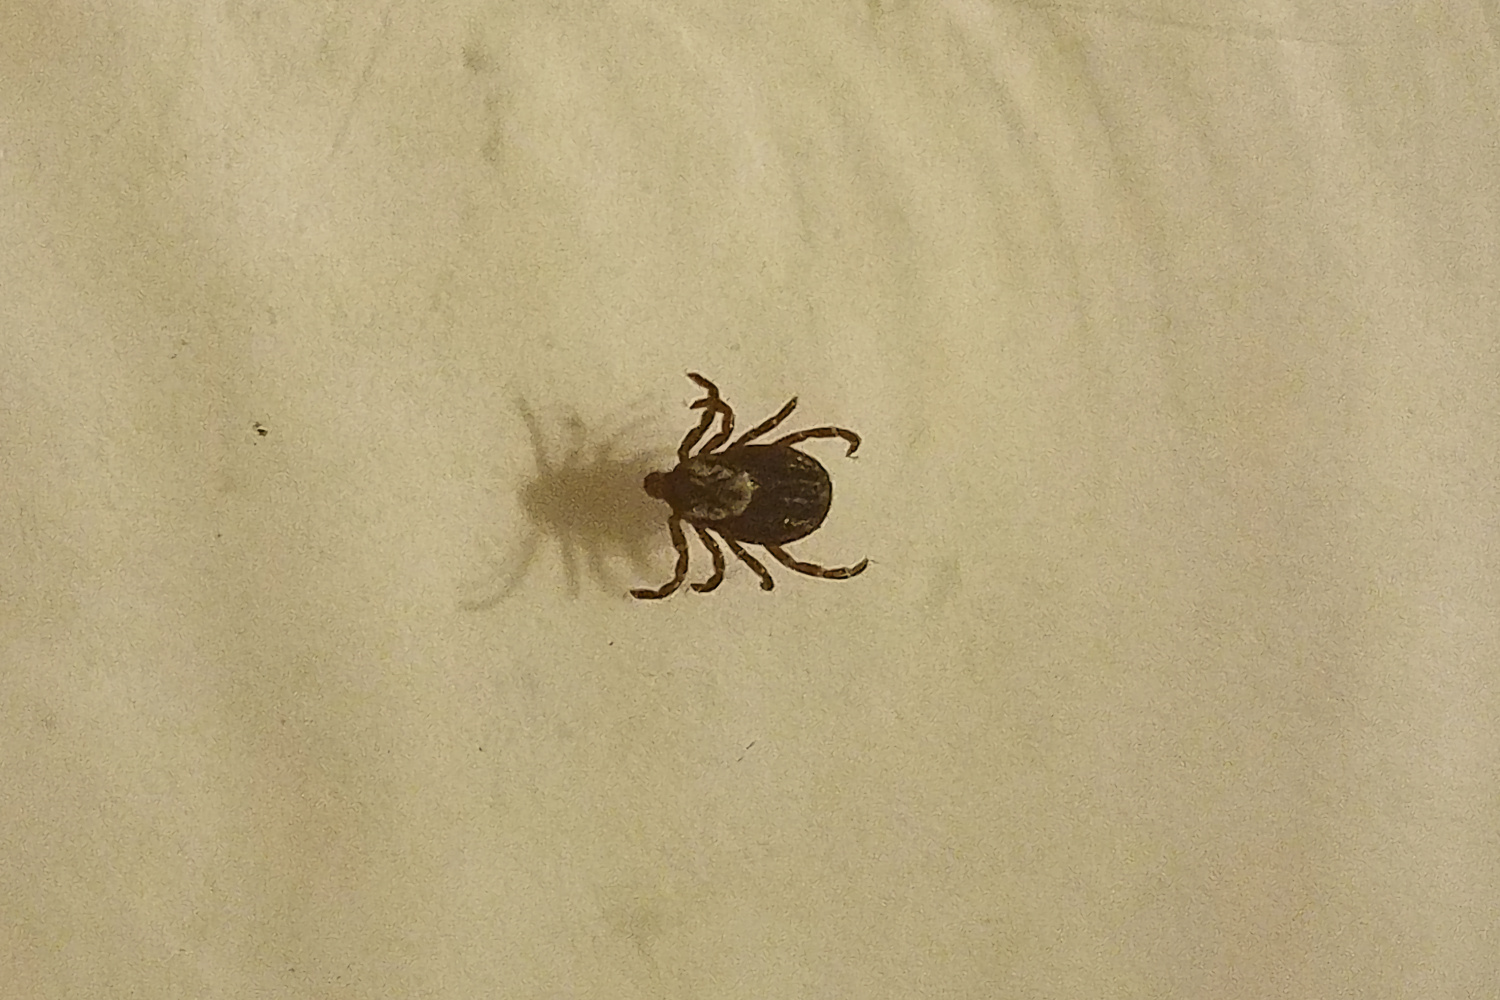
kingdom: Animalia
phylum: Arthropoda
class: Arachnida
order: Ixodida
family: Ixodidae
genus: Dermacentor
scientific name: Dermacentor variabilis
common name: American dog tick
